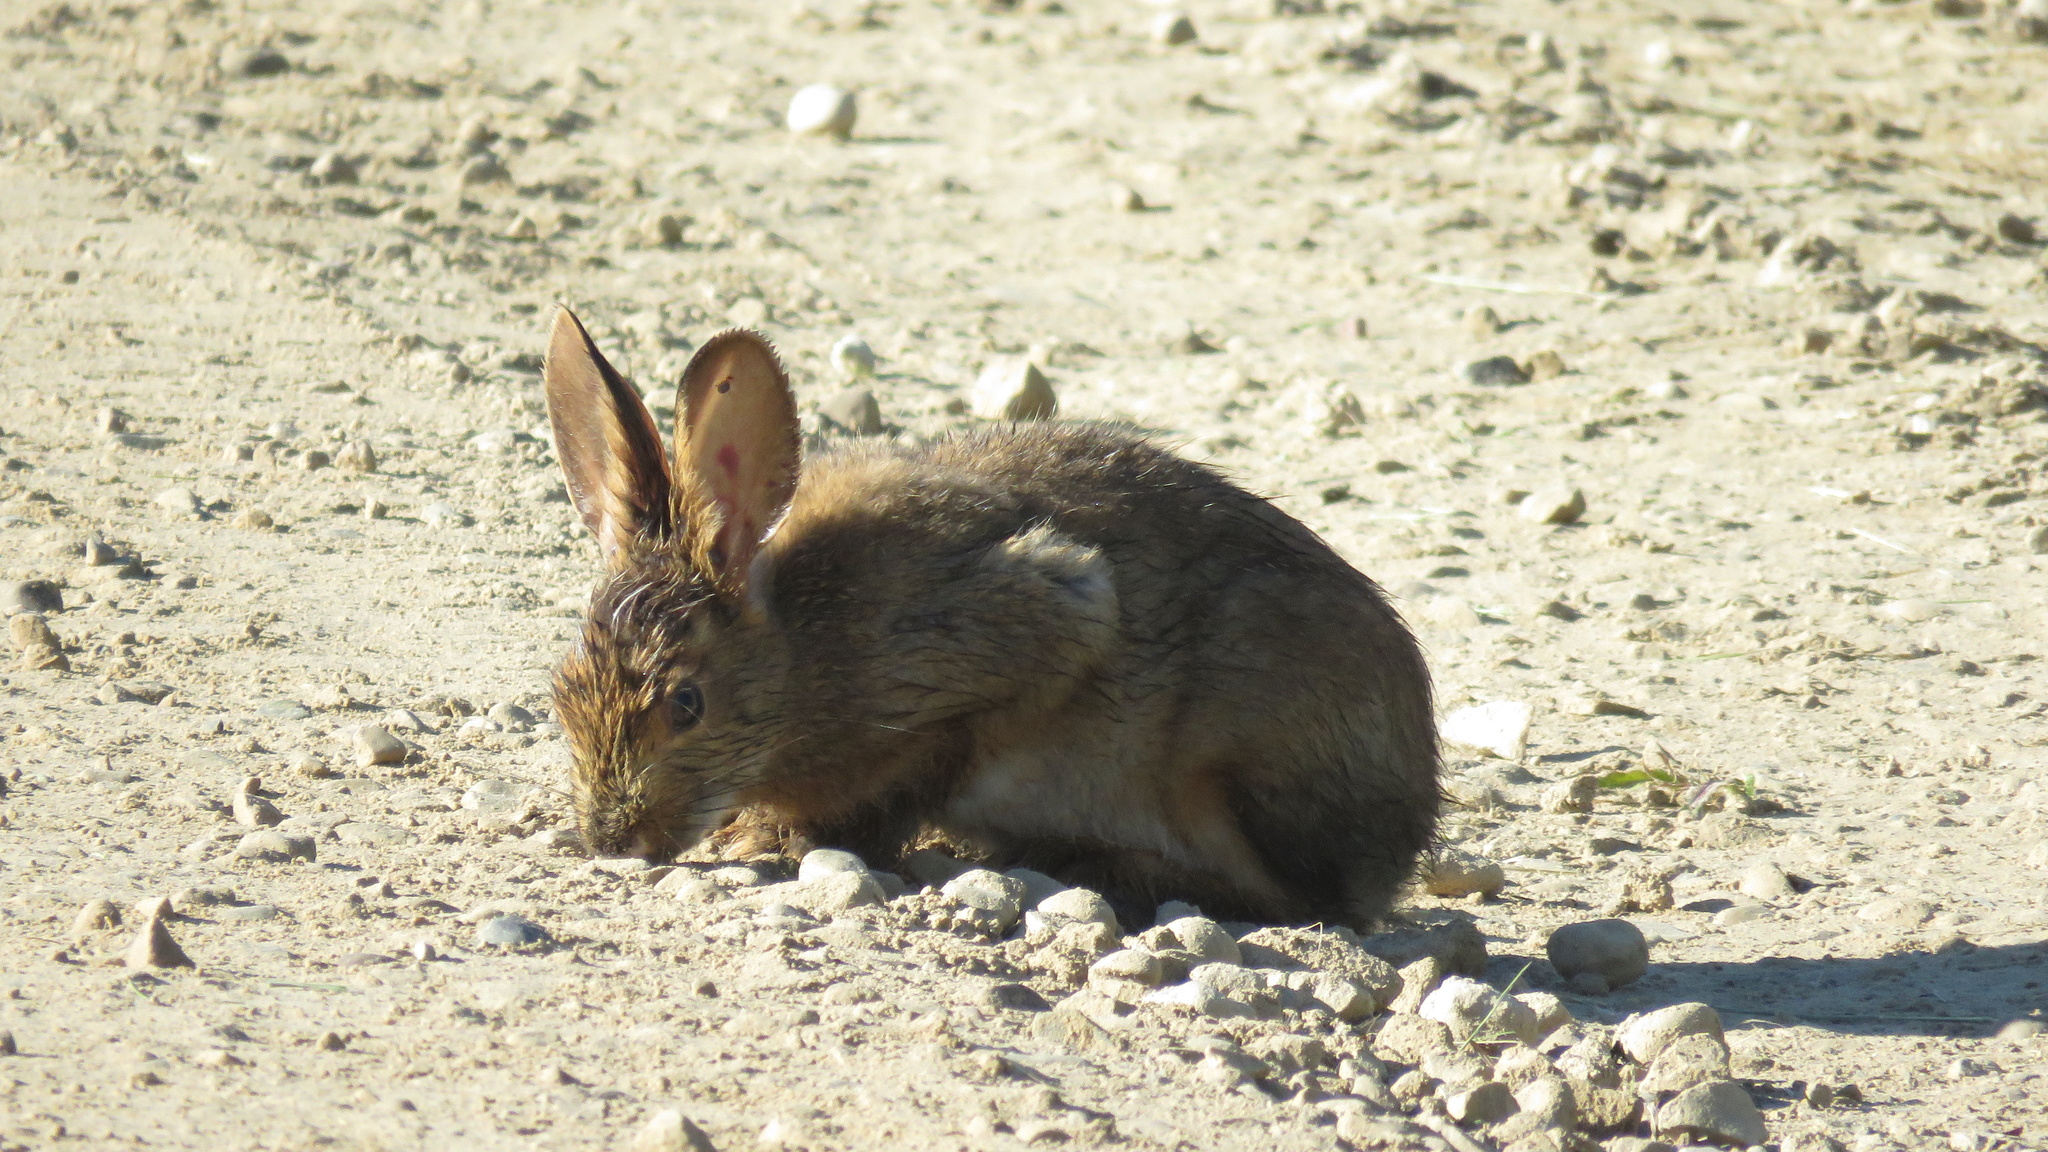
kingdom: Animalia
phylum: Chordata
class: Mammalia
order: Lagomorpha
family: Leporidae
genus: Lepus
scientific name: Lepus americanus
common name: Snowshoe hare
